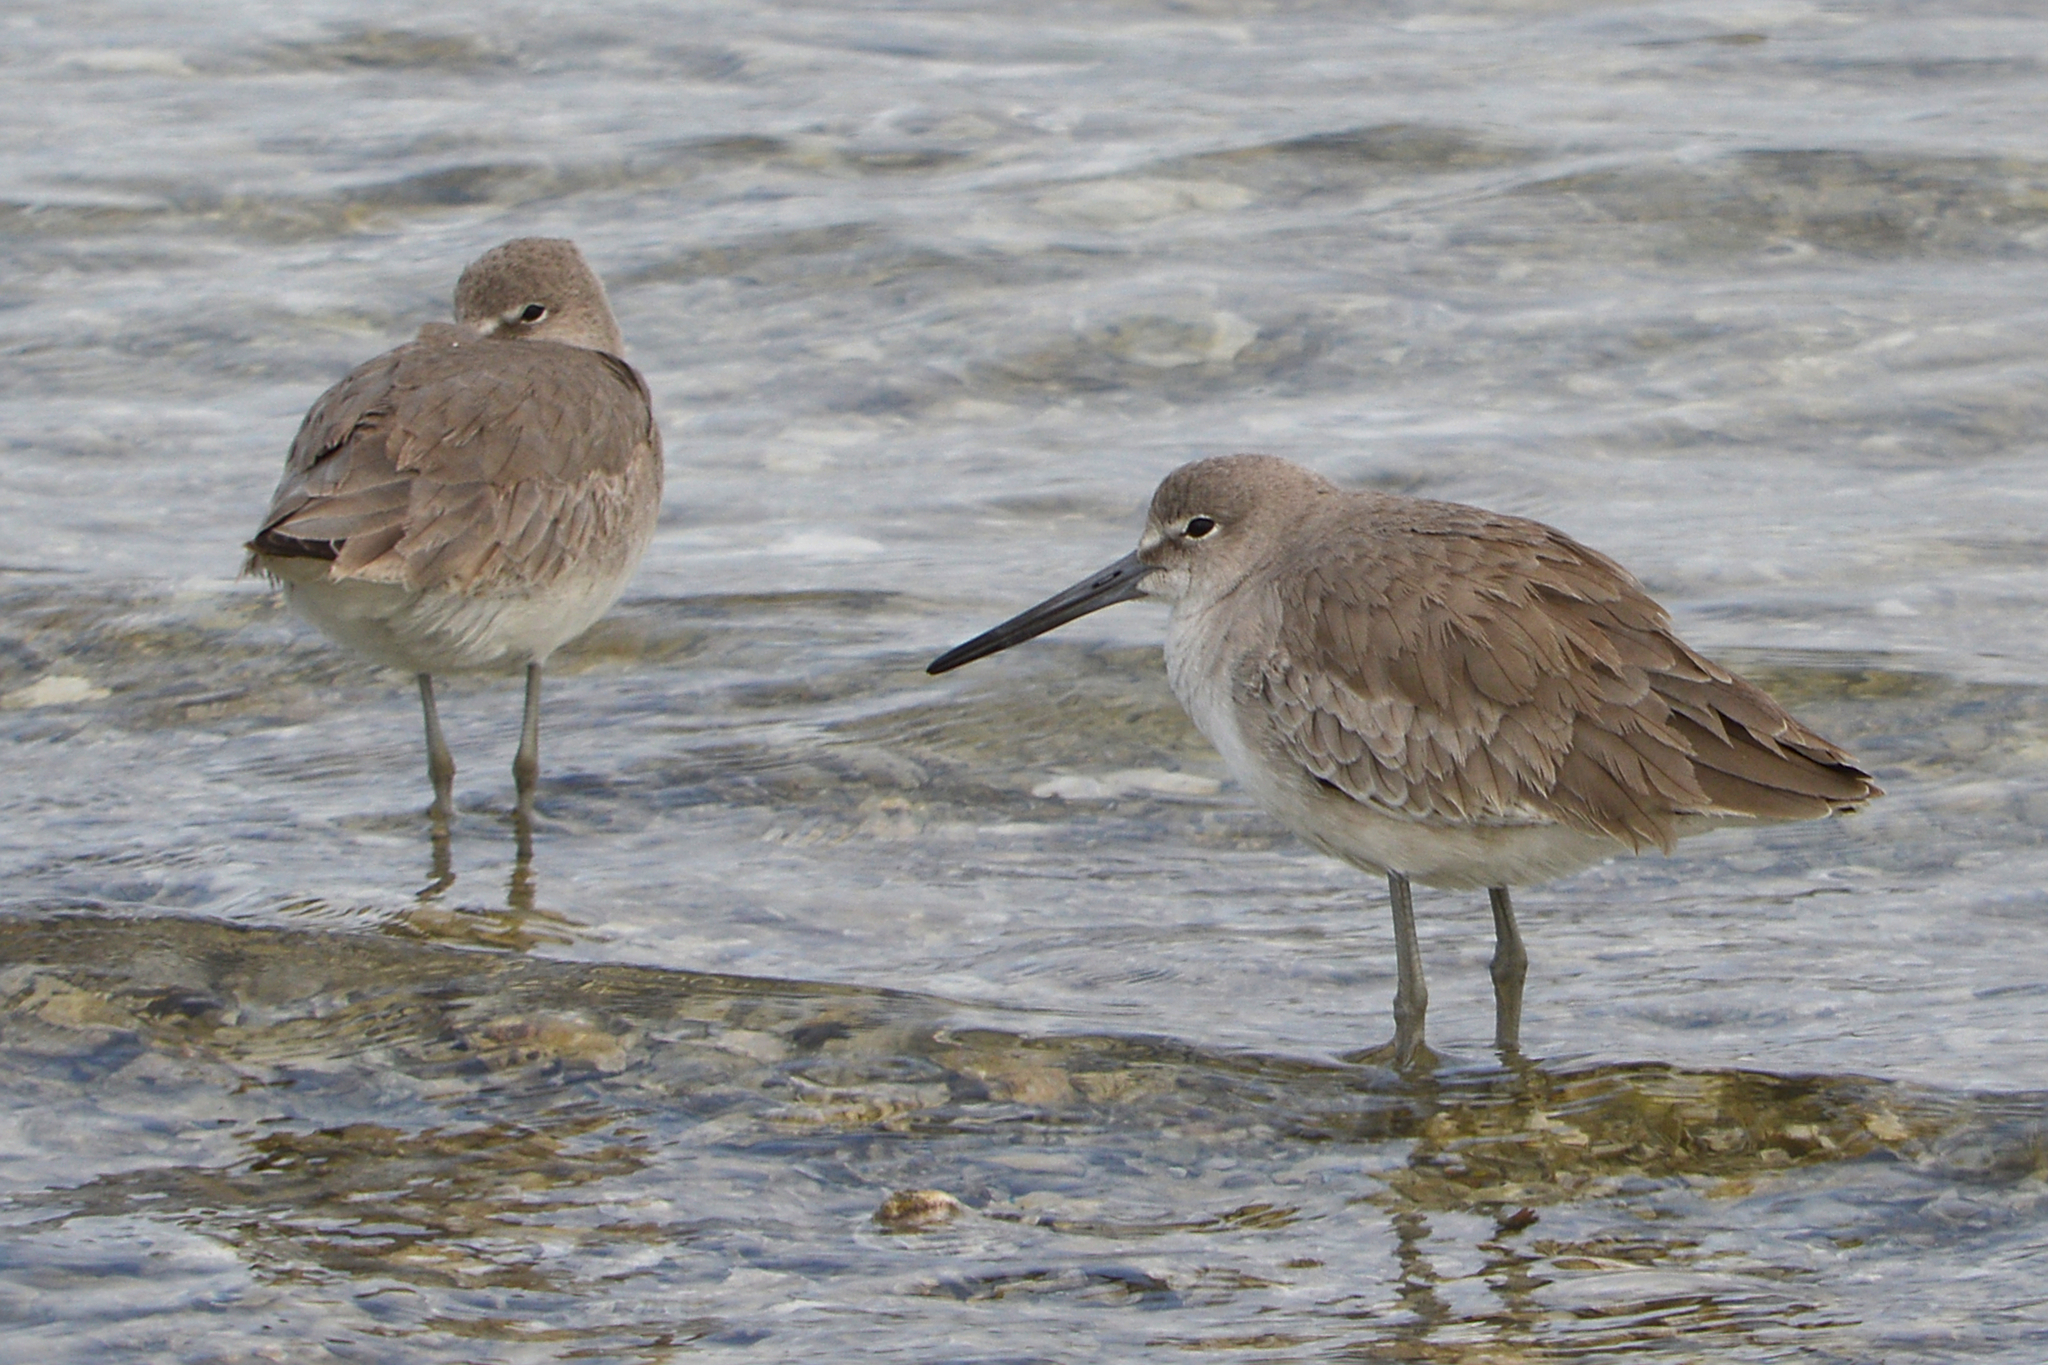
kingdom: Animalia
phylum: Chordata
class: Aves
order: Charadriiformes
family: Scolopacidae
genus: Tringa
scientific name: Tringa semipalmata
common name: Willet
